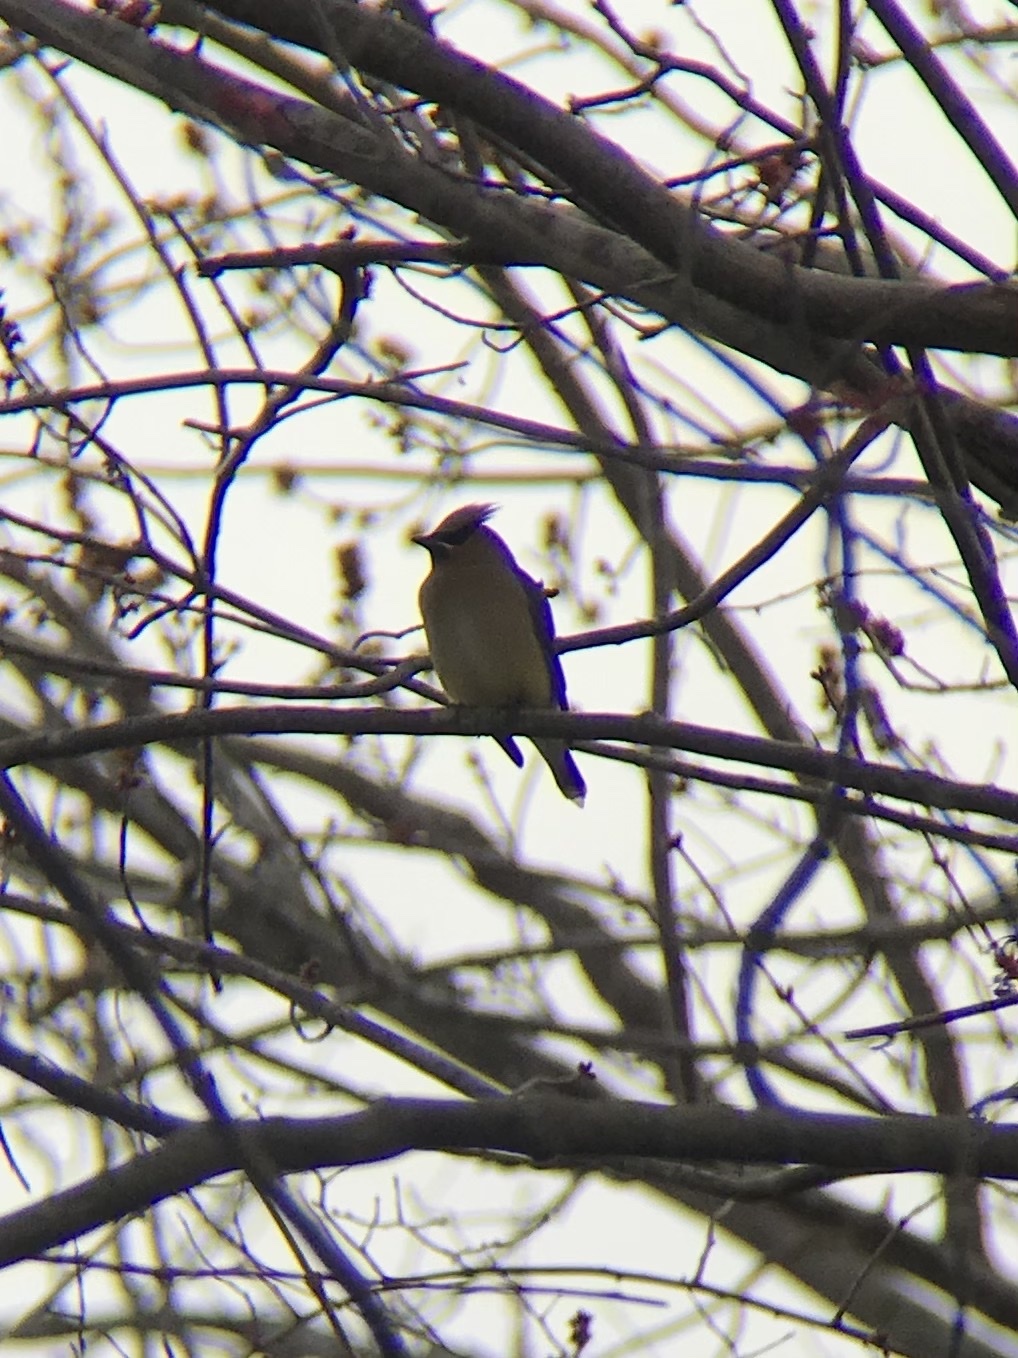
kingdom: Animalia
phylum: Chordata
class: Aves
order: Passeriformes
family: Bombycillidae
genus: Bombycilla
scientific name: Bombycilla cedrorum
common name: Cedar waxwing
